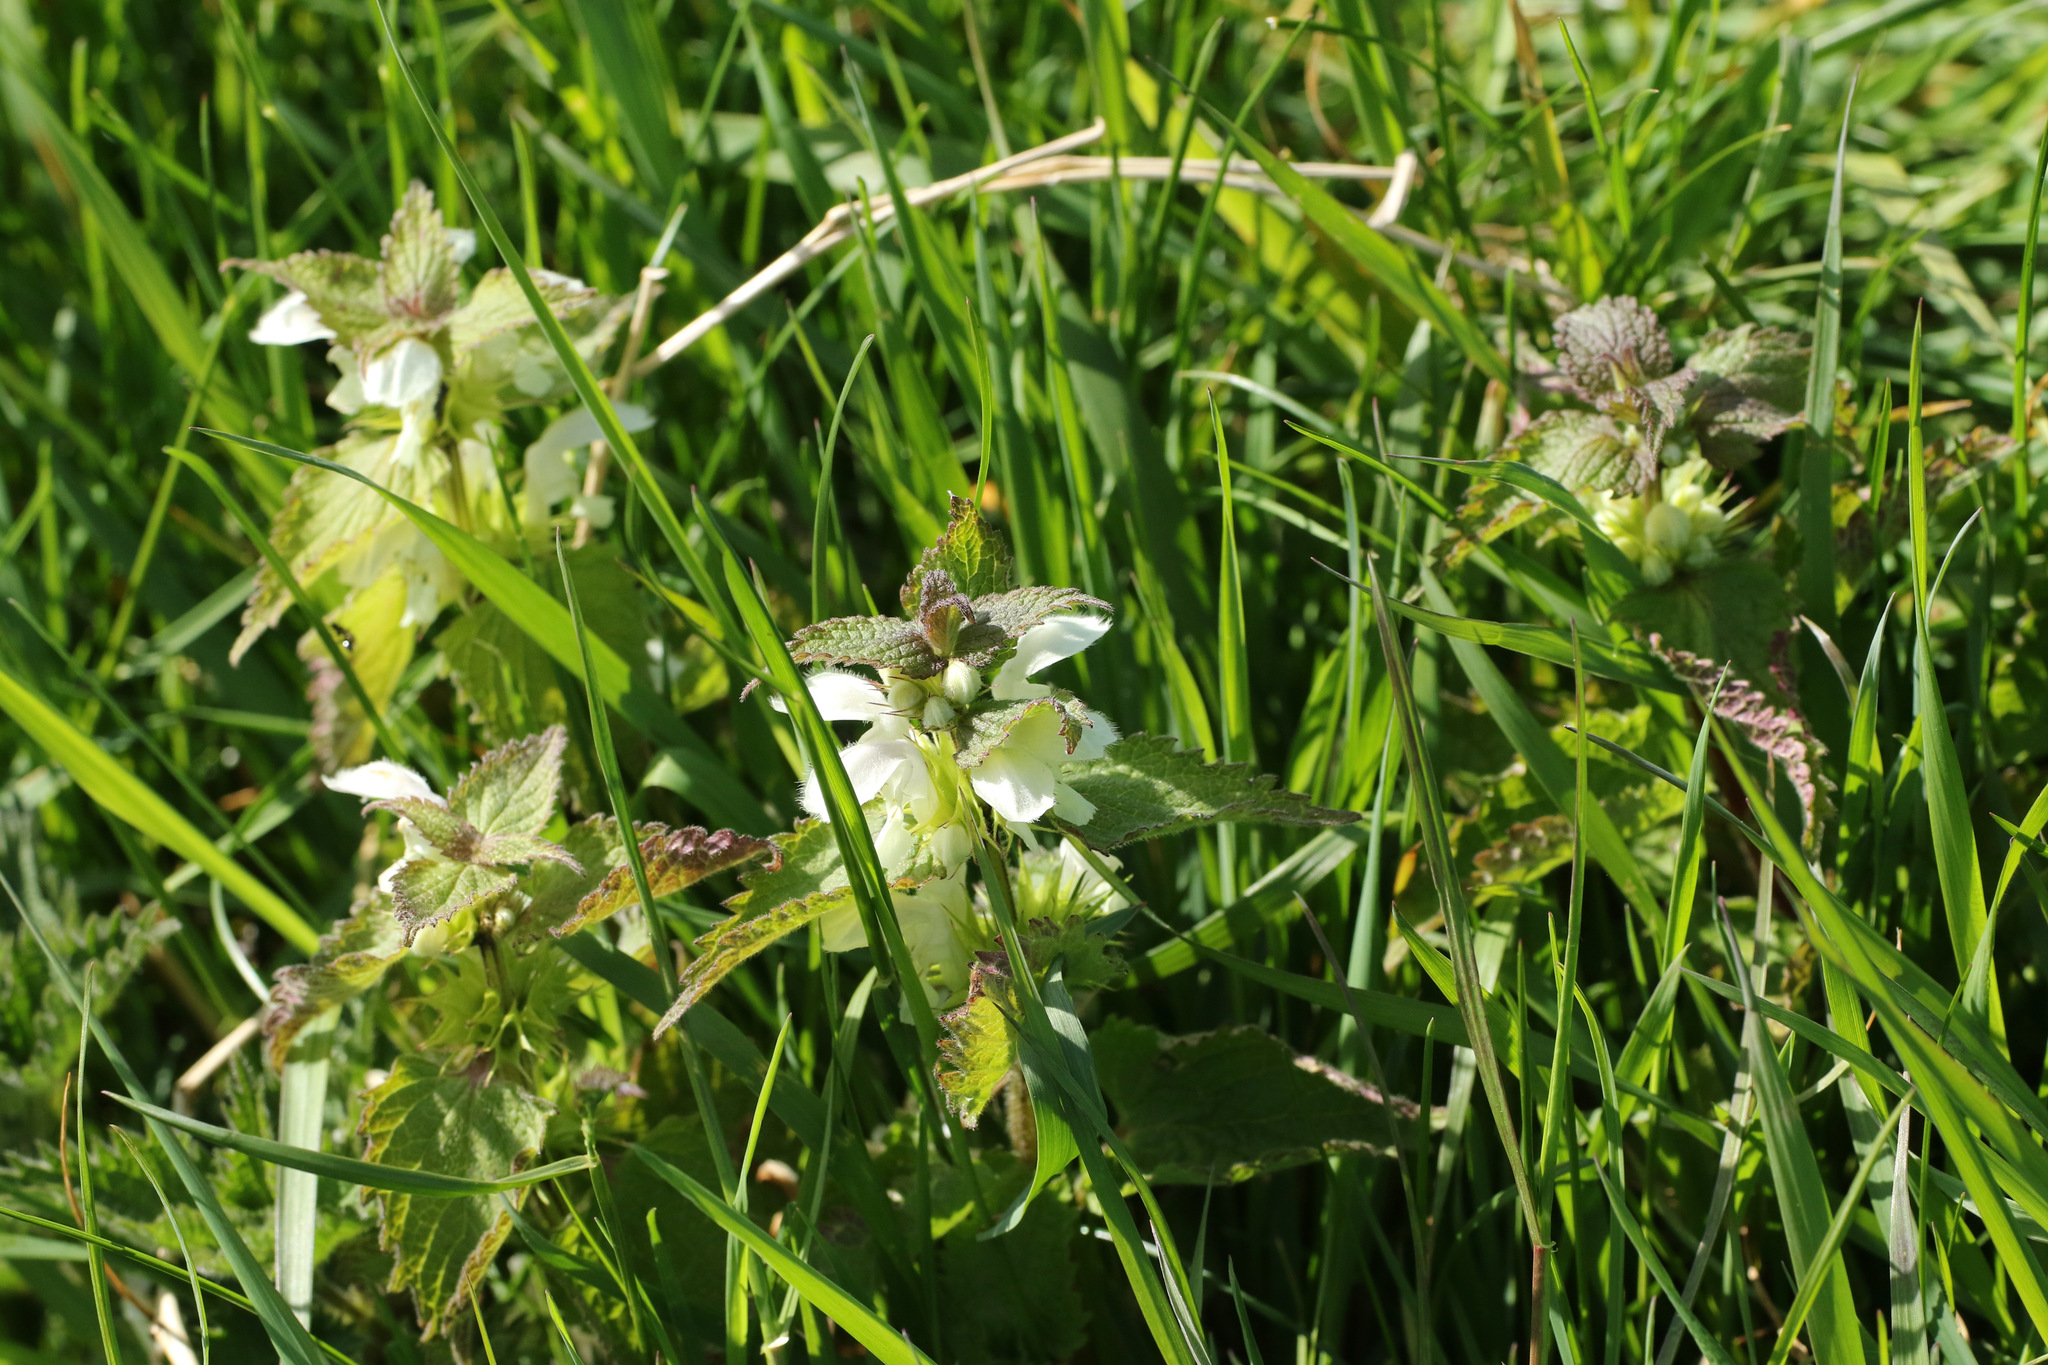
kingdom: Plantae
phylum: Tracheophyta
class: Magnoliopsida
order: Lamiales
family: Lamiaceae
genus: Lamium
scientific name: Lamium album
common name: White dead-nettle
